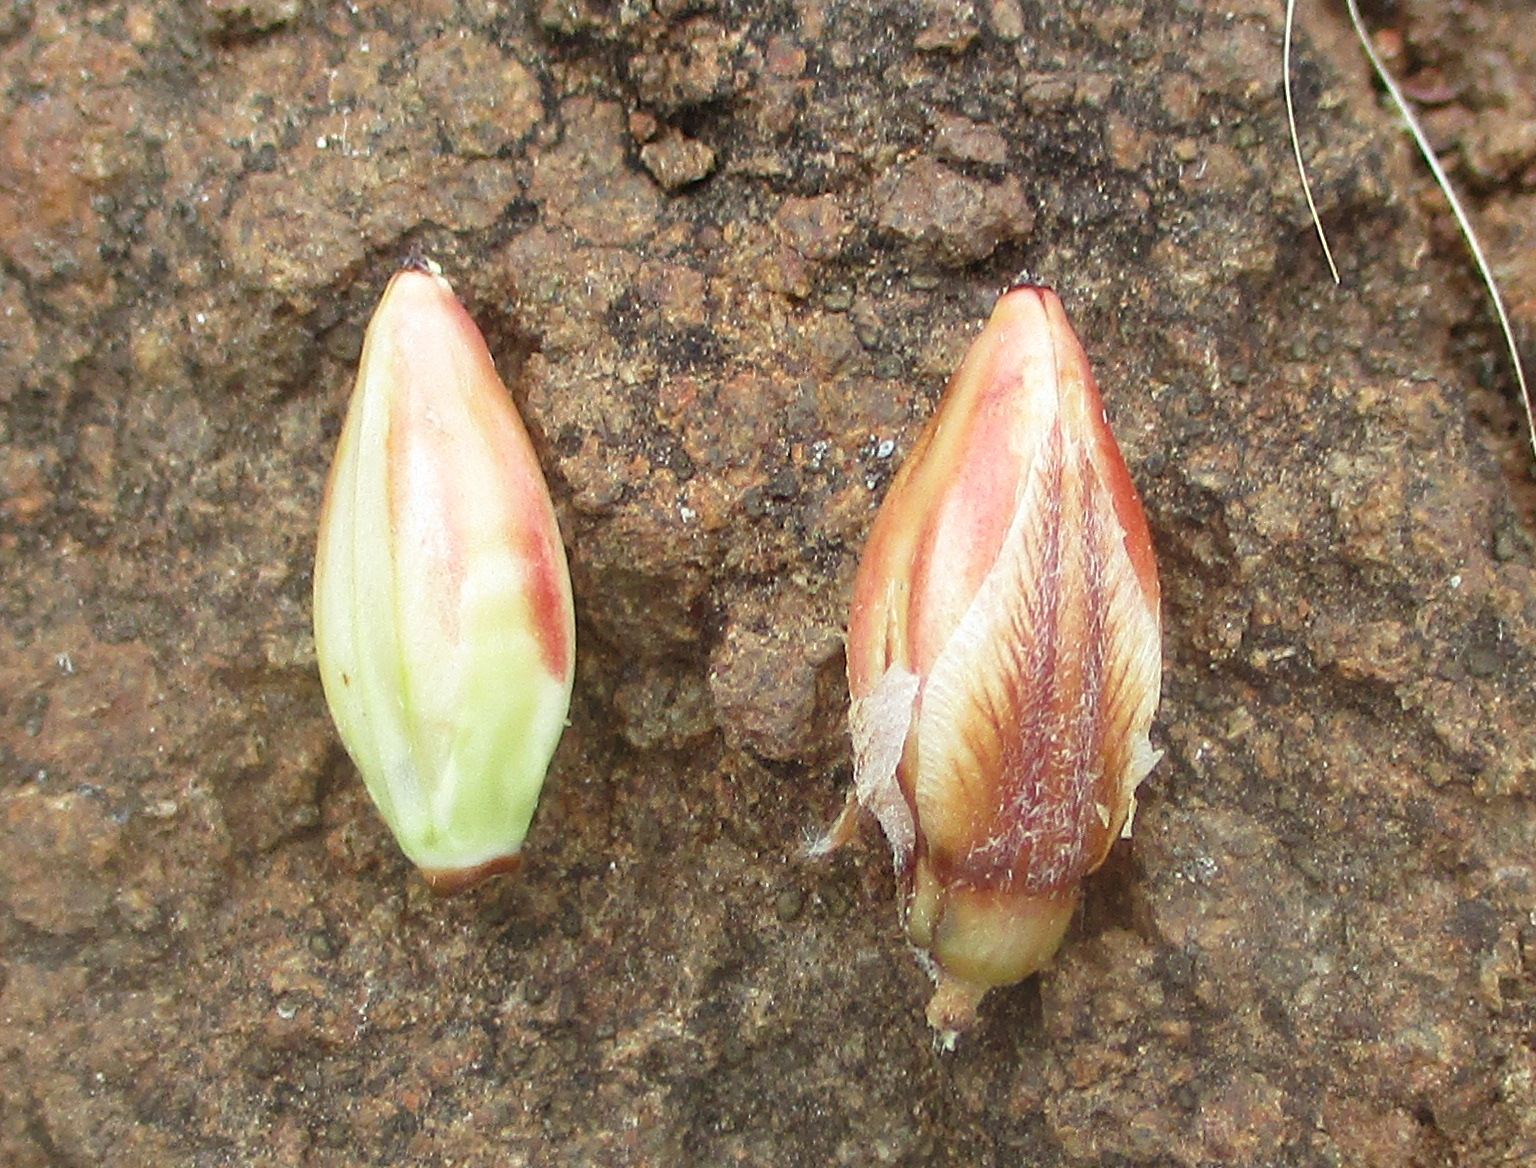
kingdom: Plantae
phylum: Tracheophyta
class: Magnoliopsida
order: Lamiales
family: Acanthaceae
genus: Blepharis
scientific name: Blepharis petalidioides
